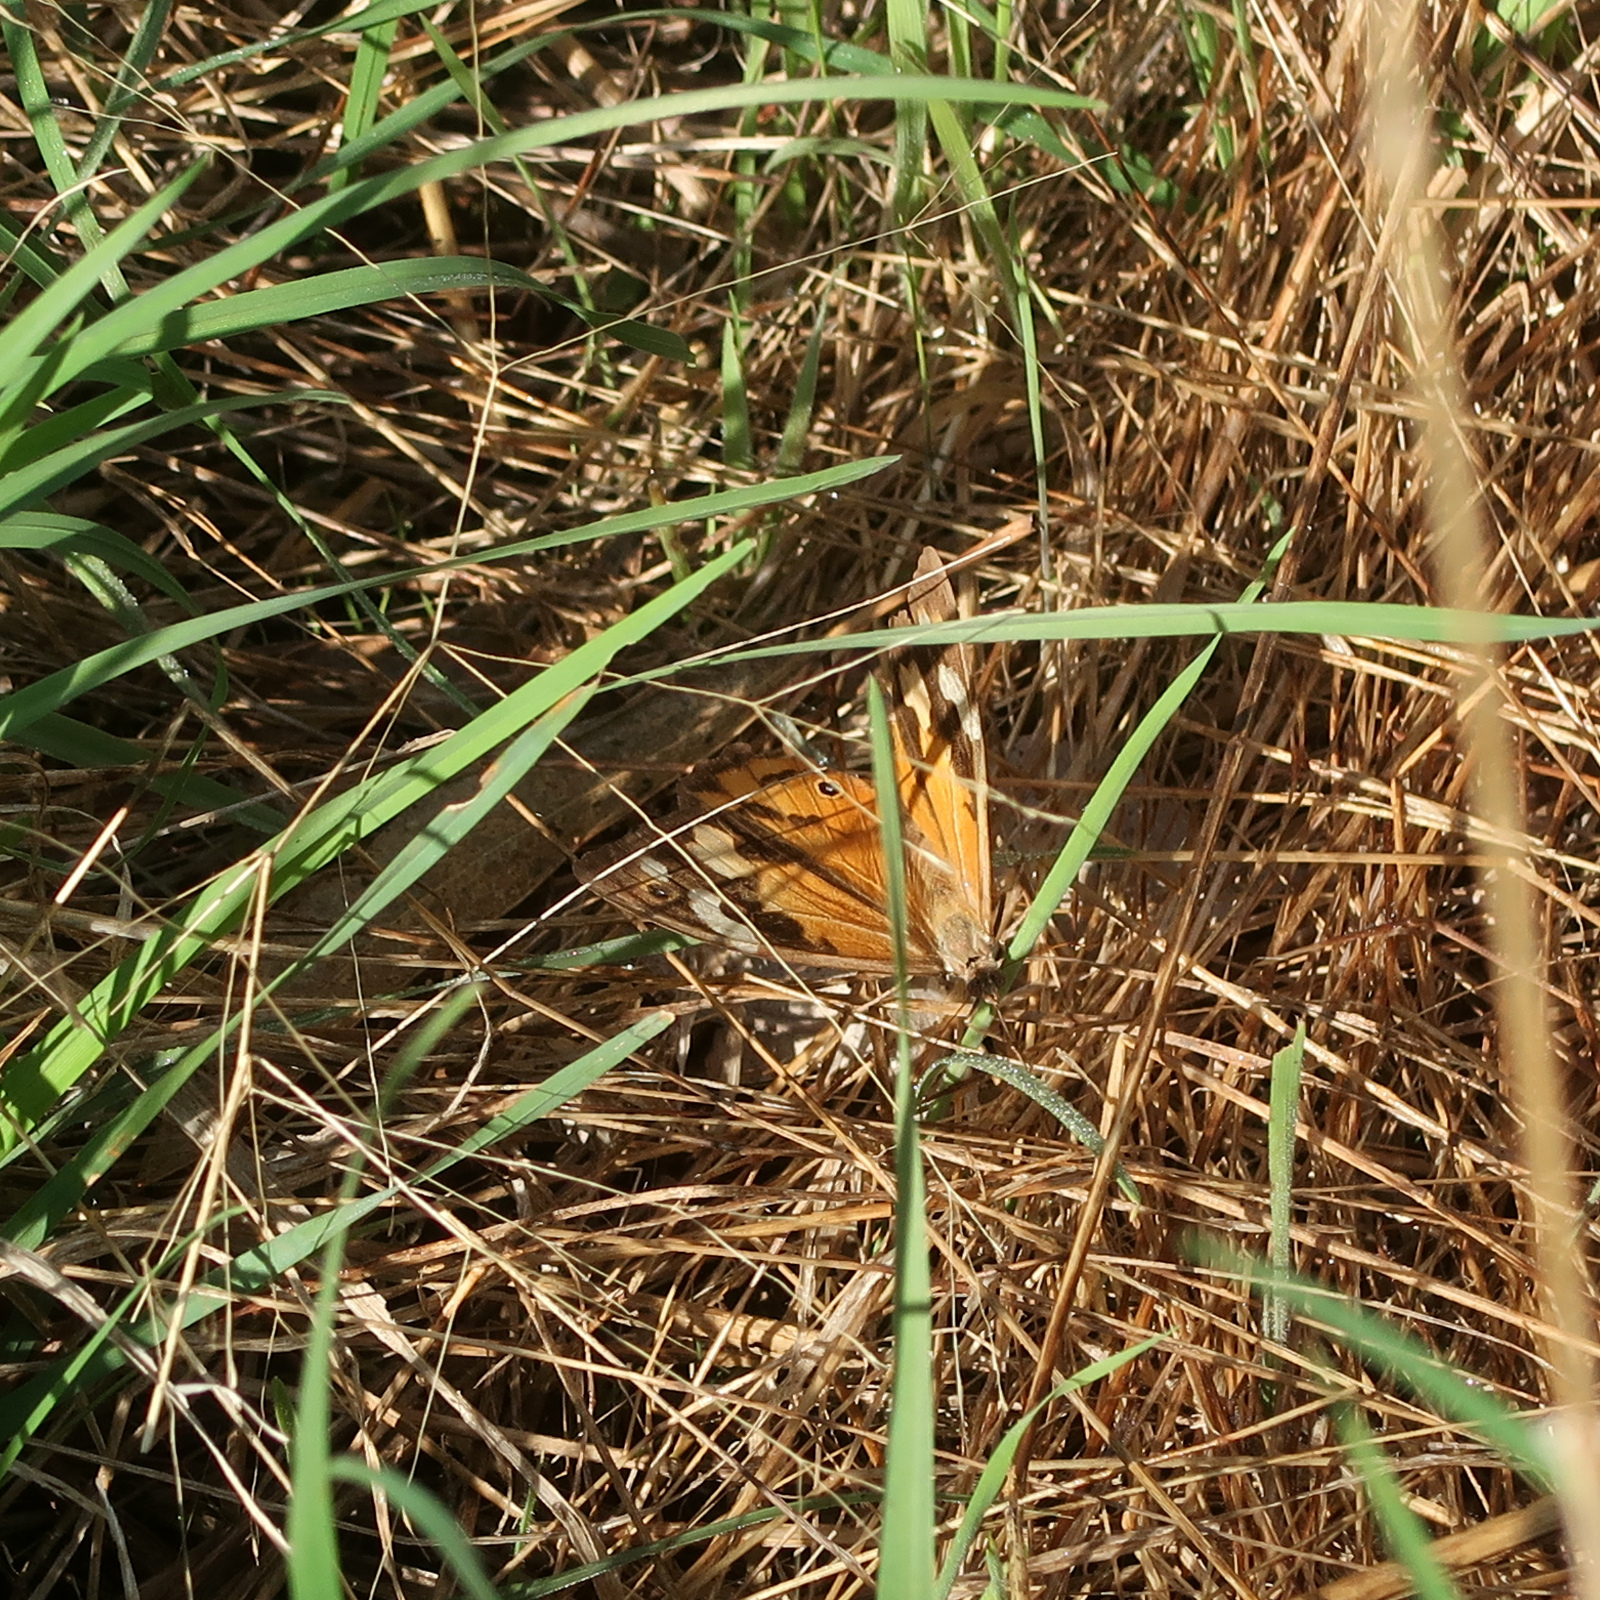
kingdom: Animalia
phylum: Arthropoda
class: Insecta
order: Lepidoptera
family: Nymphalidae
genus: Heteronympha
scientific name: Heteronympha merope
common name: Common brown
